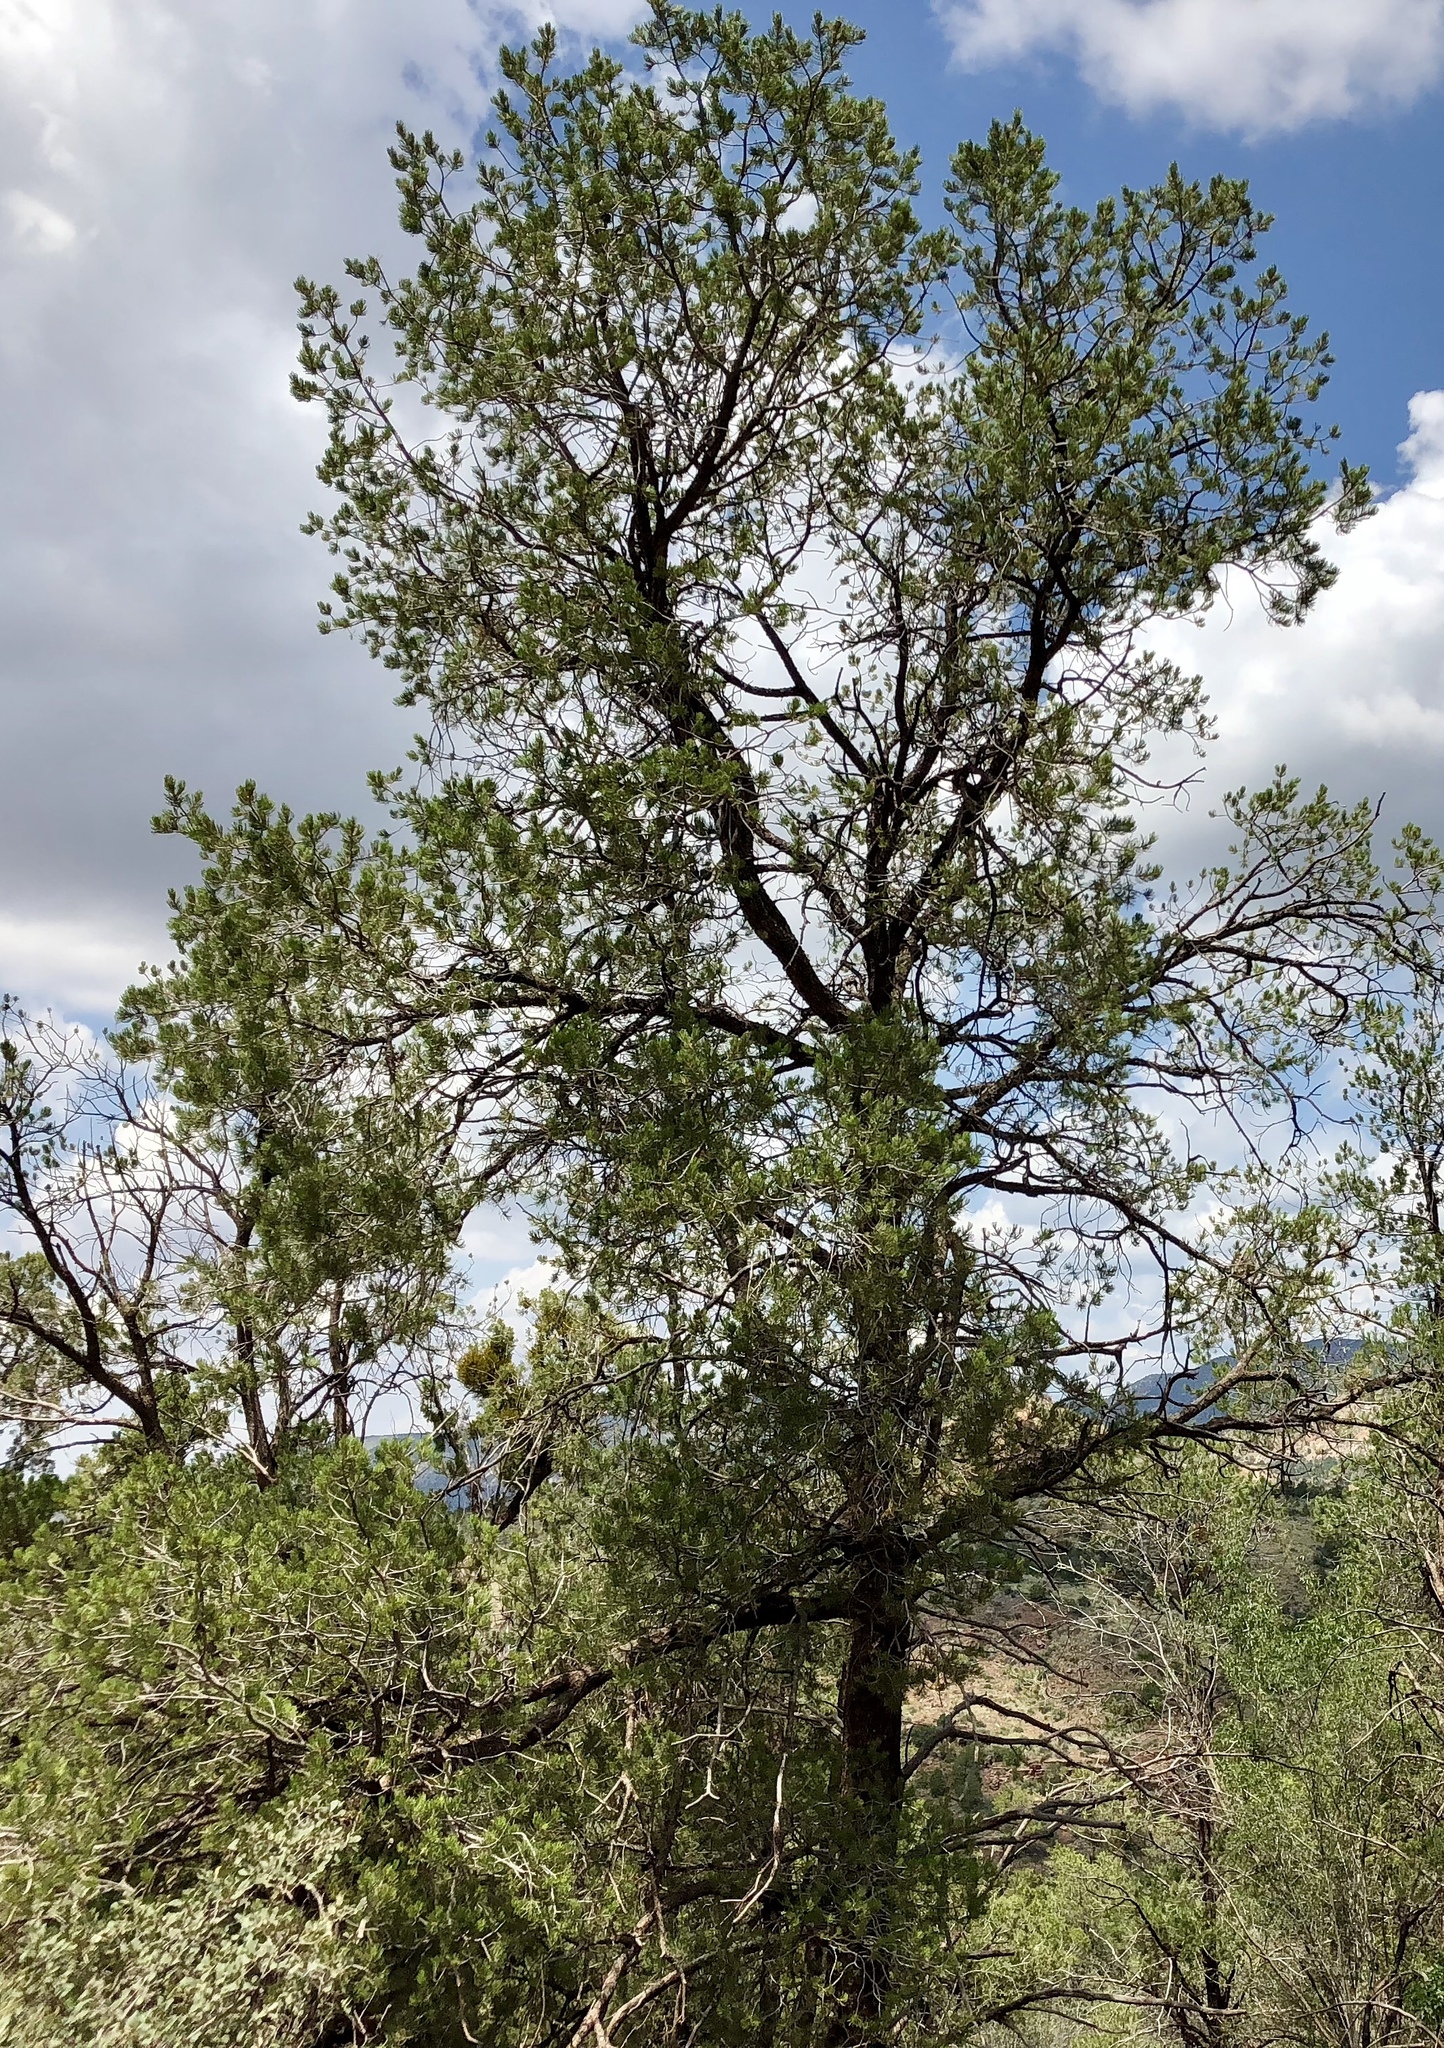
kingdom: Plantae
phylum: Tracheophyta
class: Pinopsida
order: Pinales
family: Pinaceae
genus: Pinus
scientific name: Pinus edulis
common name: Colorado pinyon
